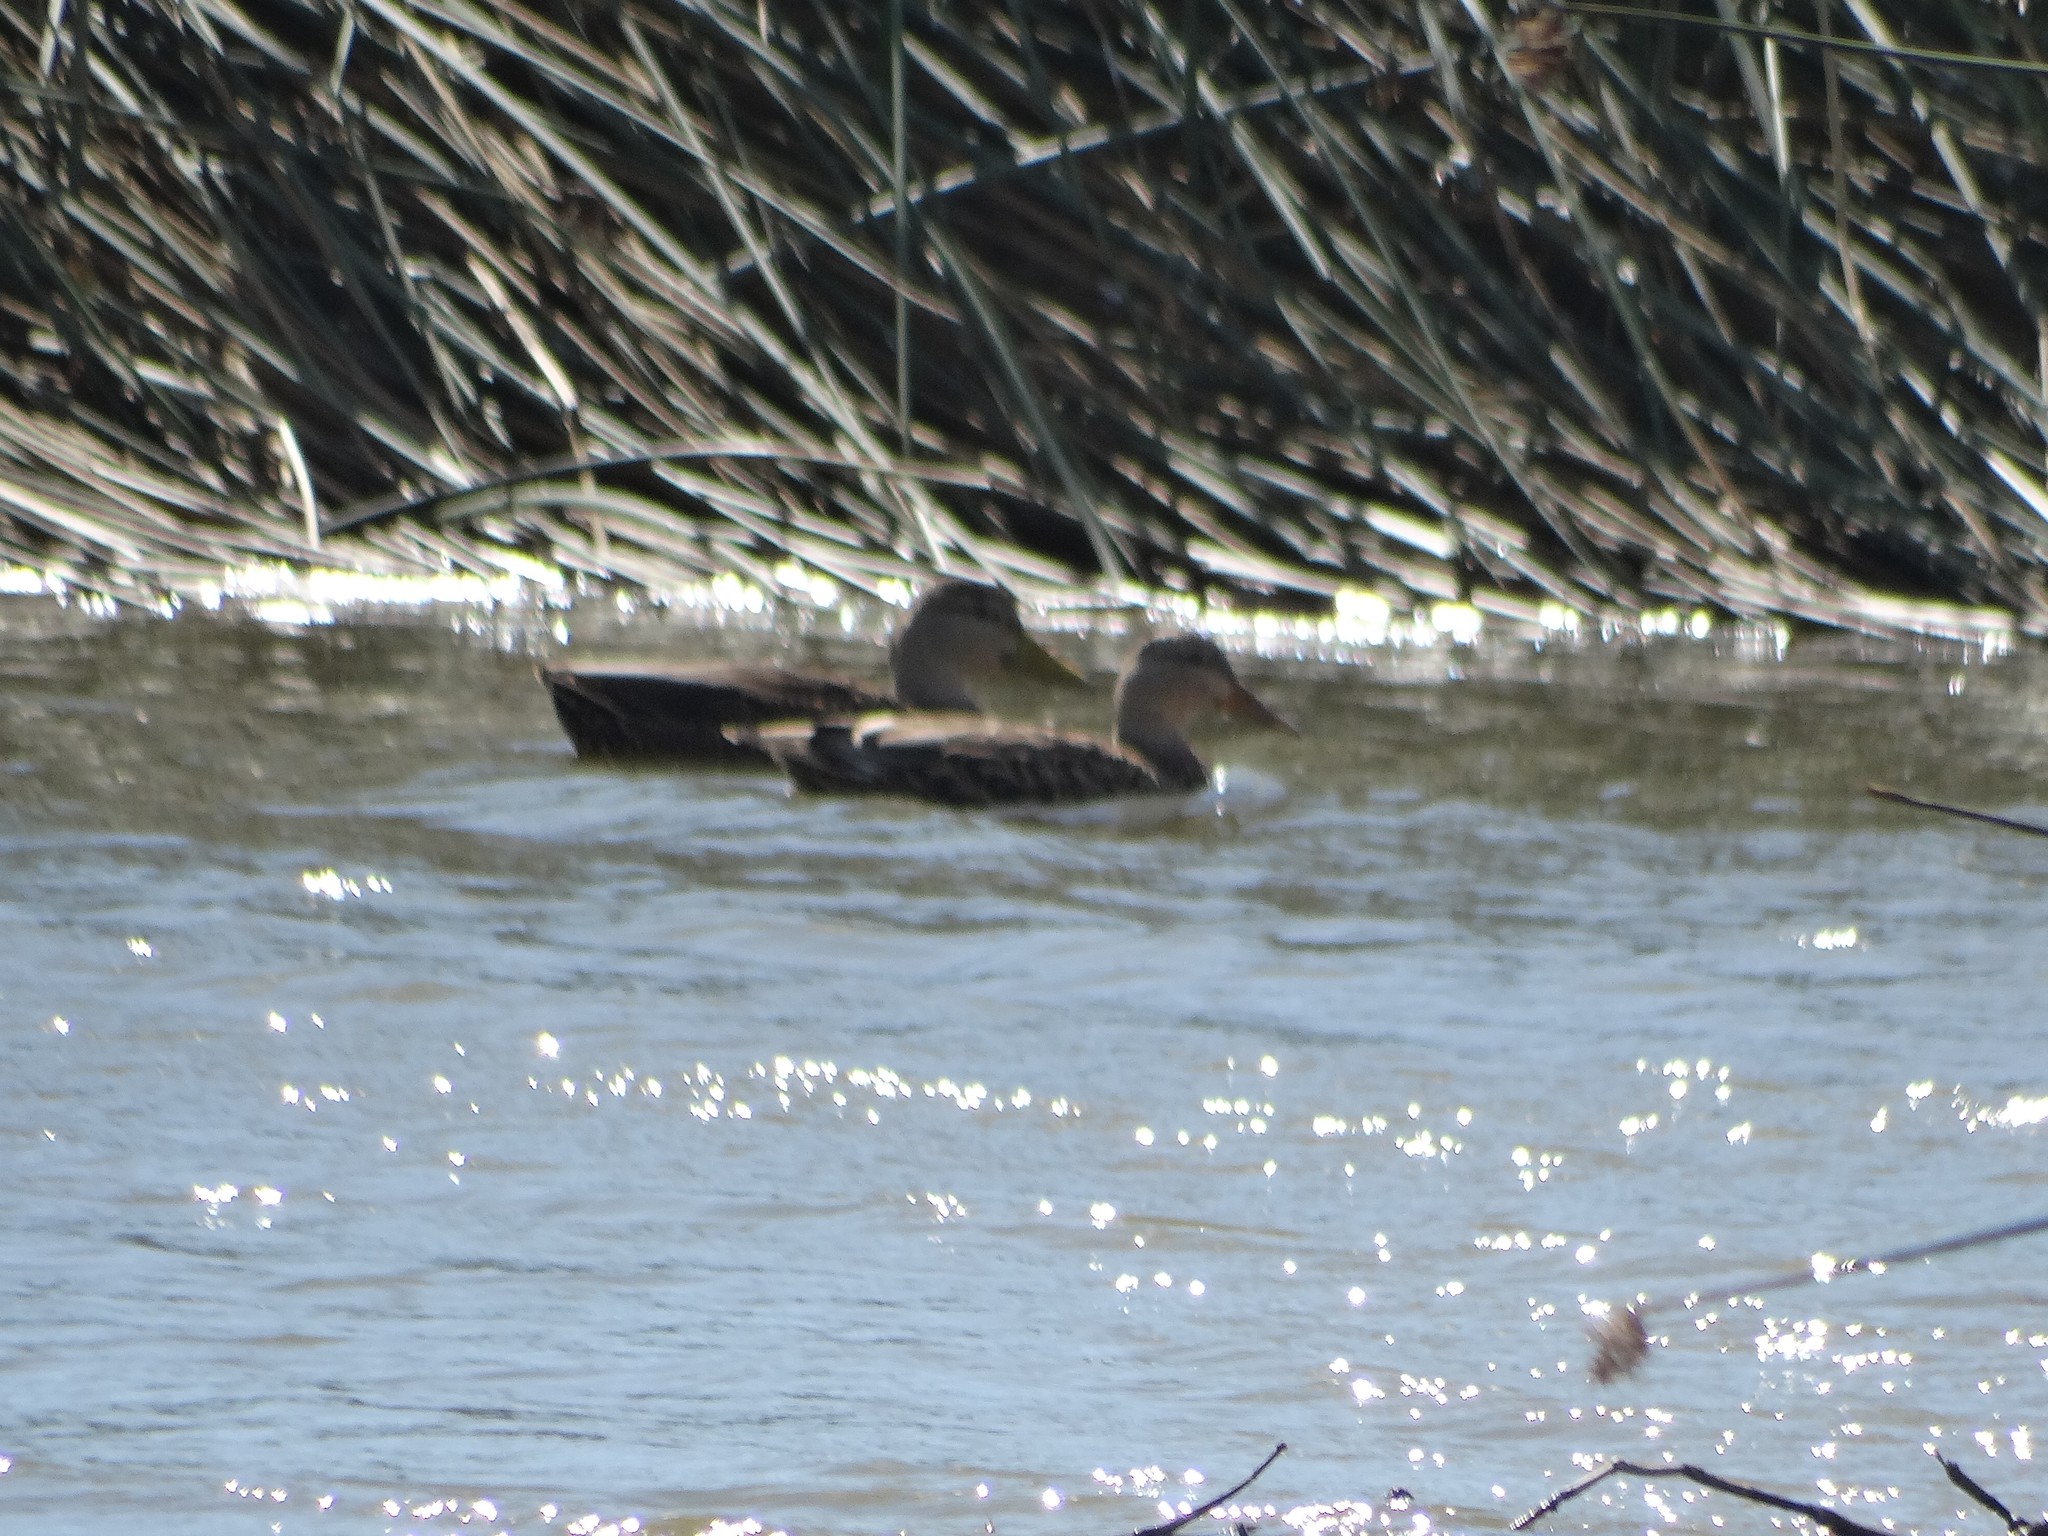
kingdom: Animalia
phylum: Chordata
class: Aves
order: Anseriformes
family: Anatidae
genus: Anas
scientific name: Anas diazi
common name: Mexican duck
